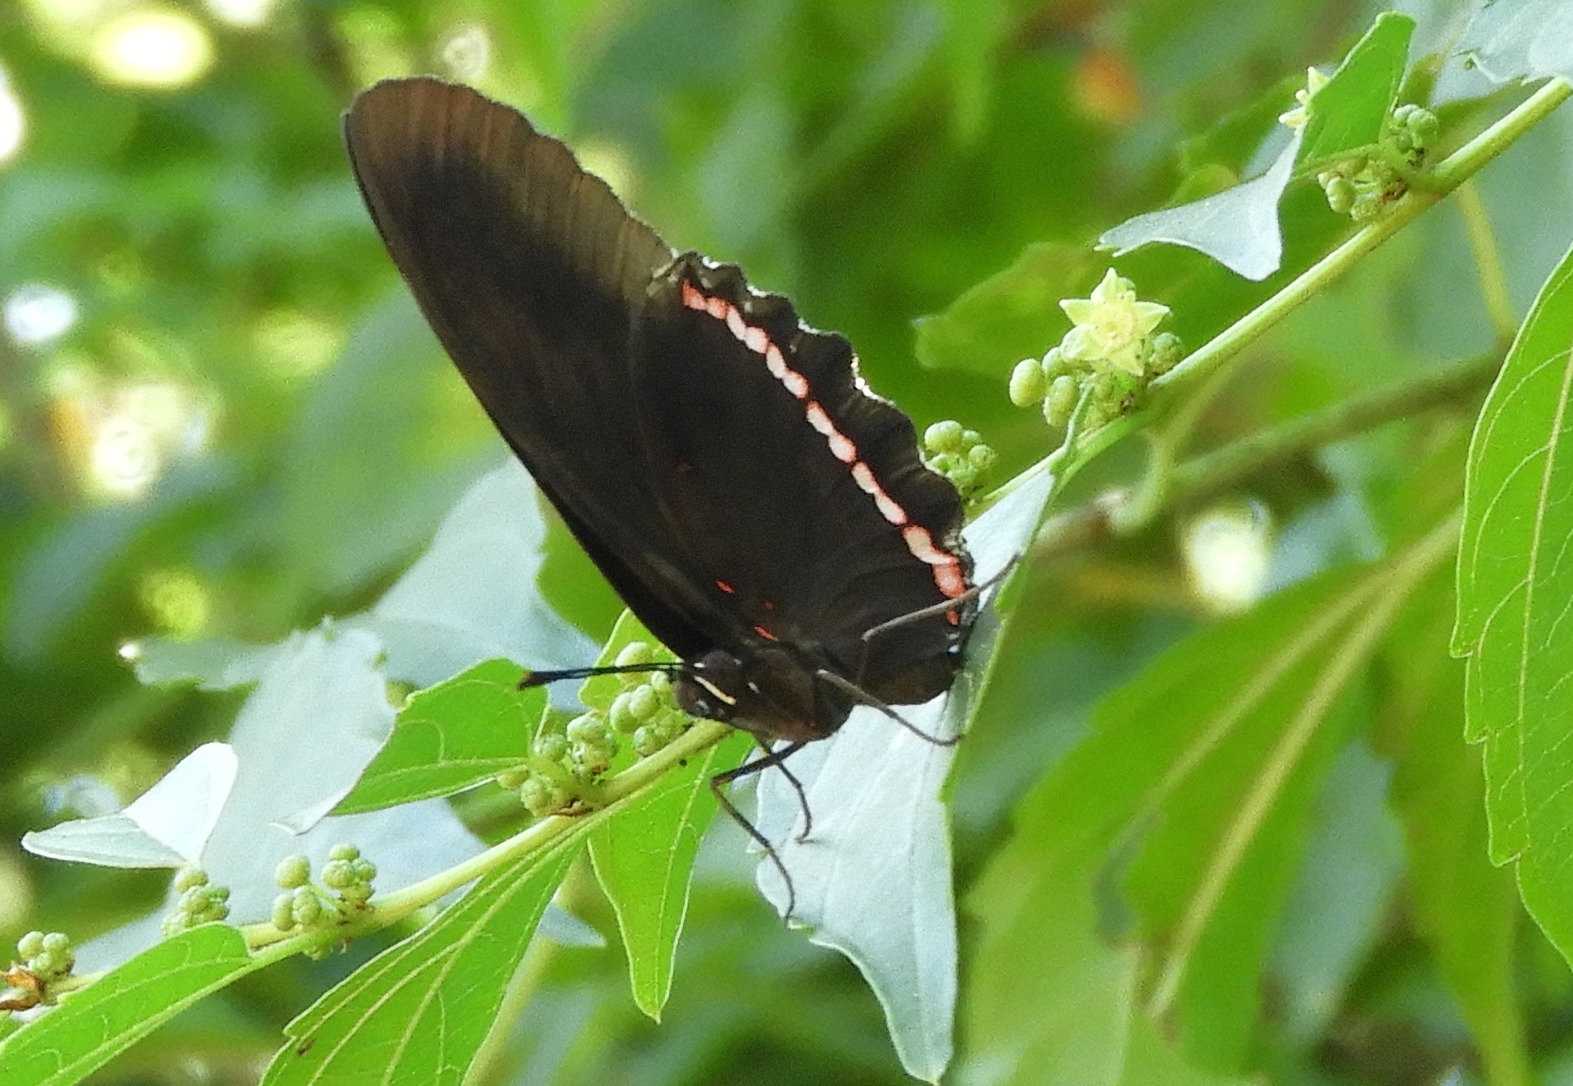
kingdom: Animalia
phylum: Arthropoda
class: Insecta
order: Lepidoptera
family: Nymphalidae
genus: Biblis
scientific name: Biblis aganisa
